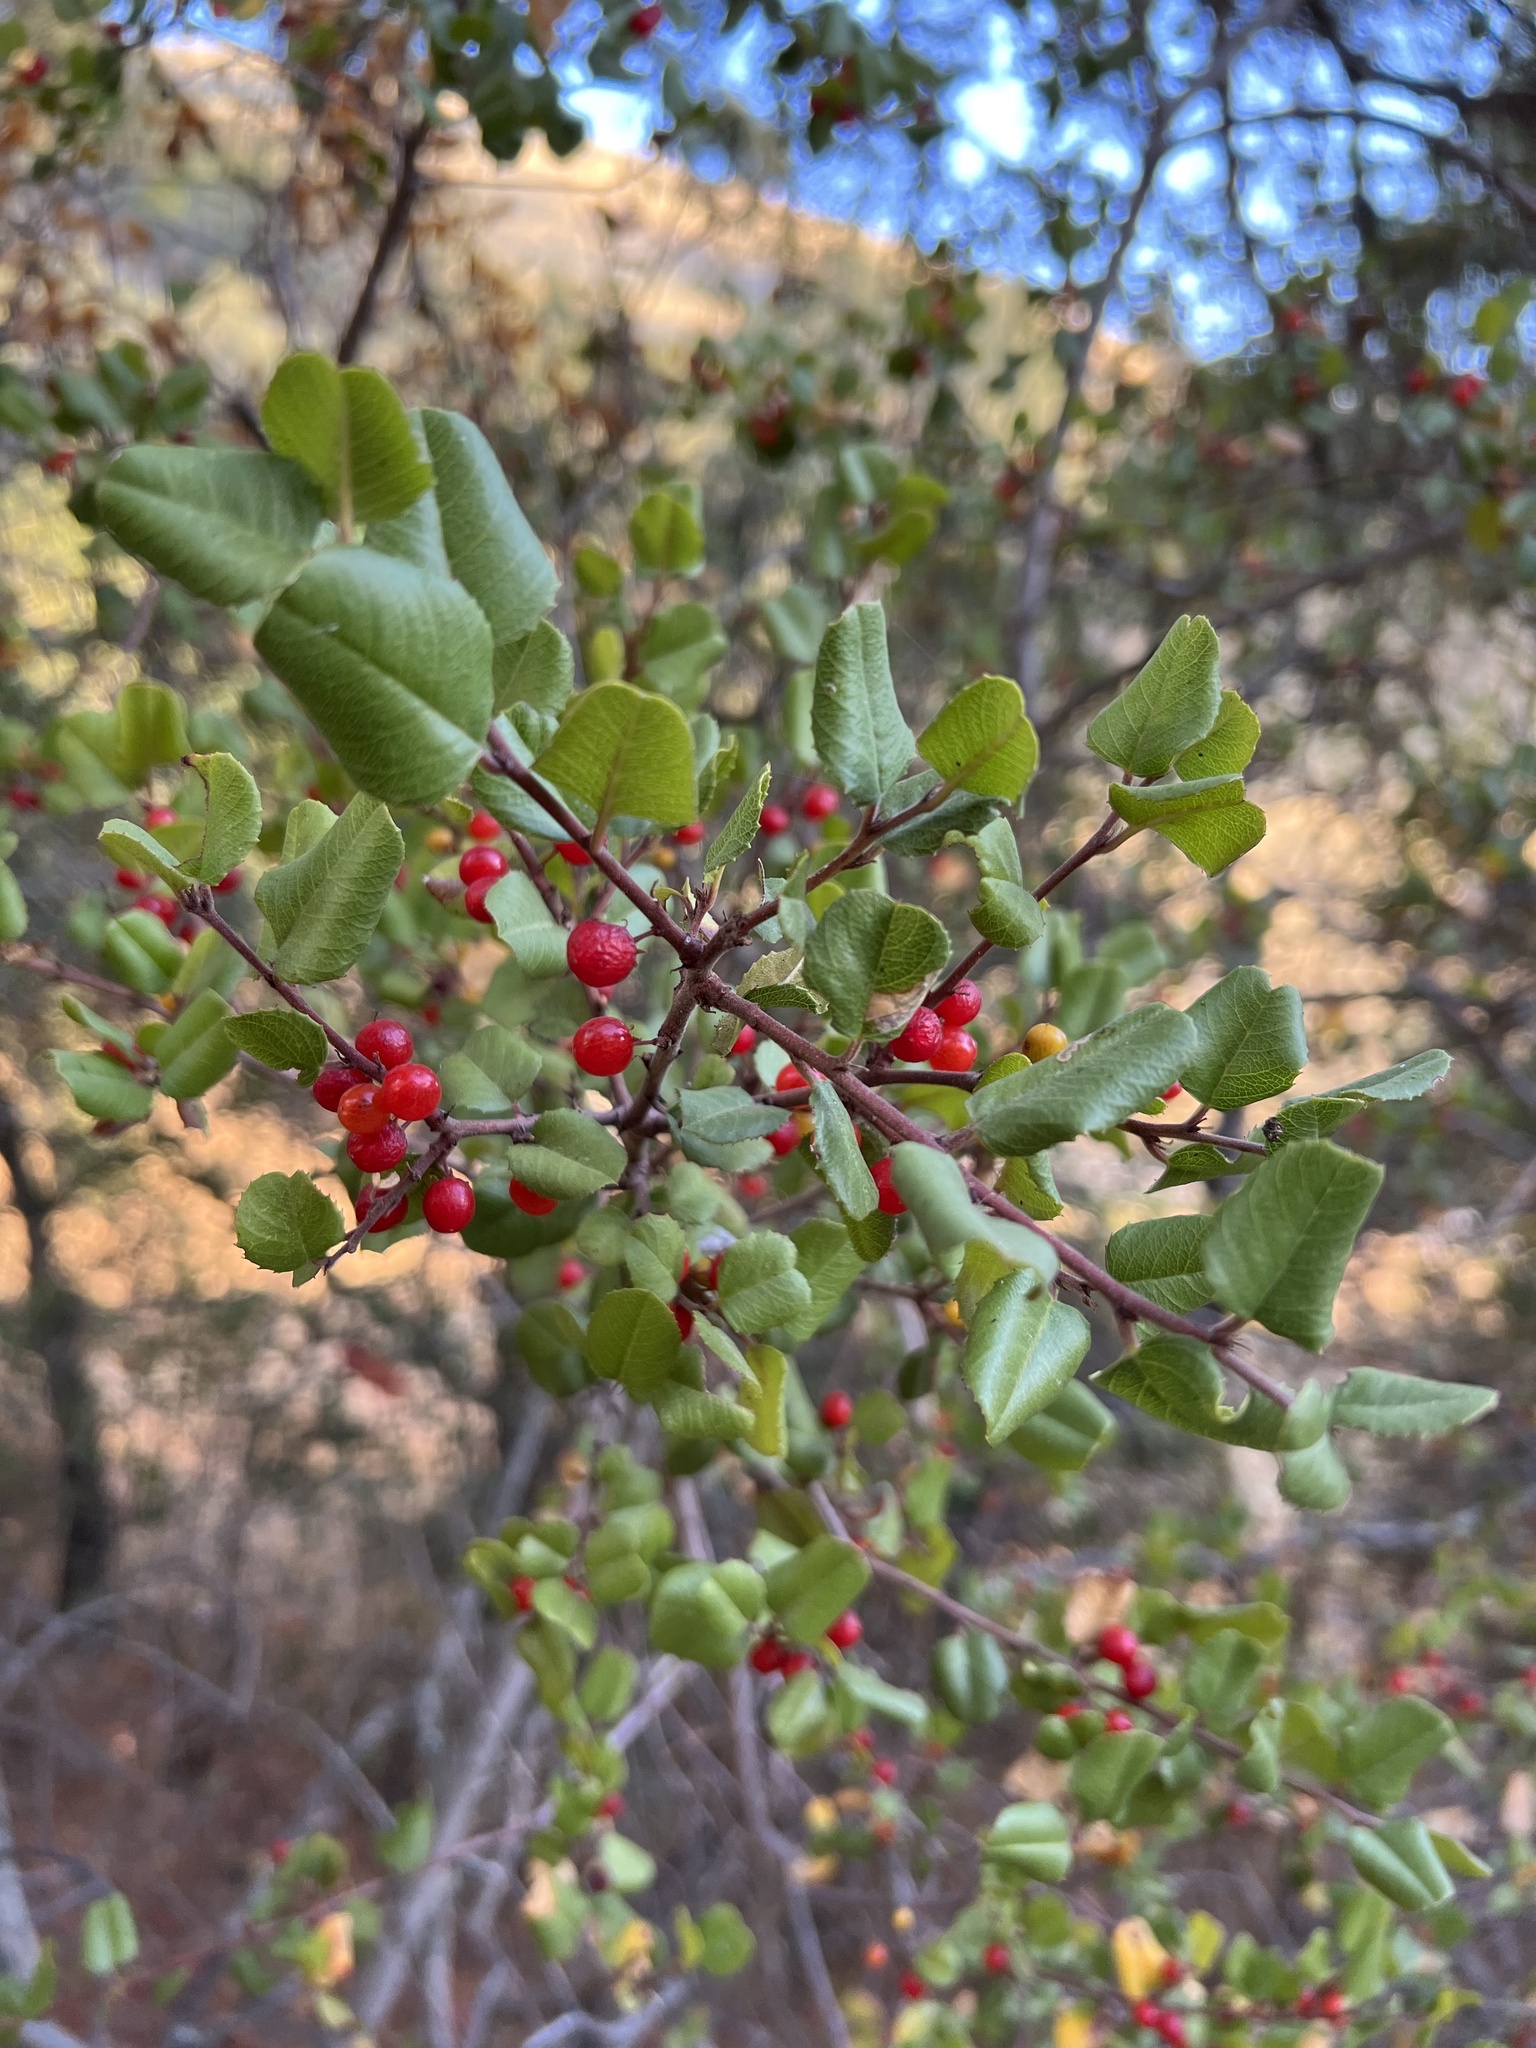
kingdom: Plantae
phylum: Tracheophyta
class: Magnoliopsida
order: Rosales
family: Rhamnaceae
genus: Endotropis
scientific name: Endotropis crocea
